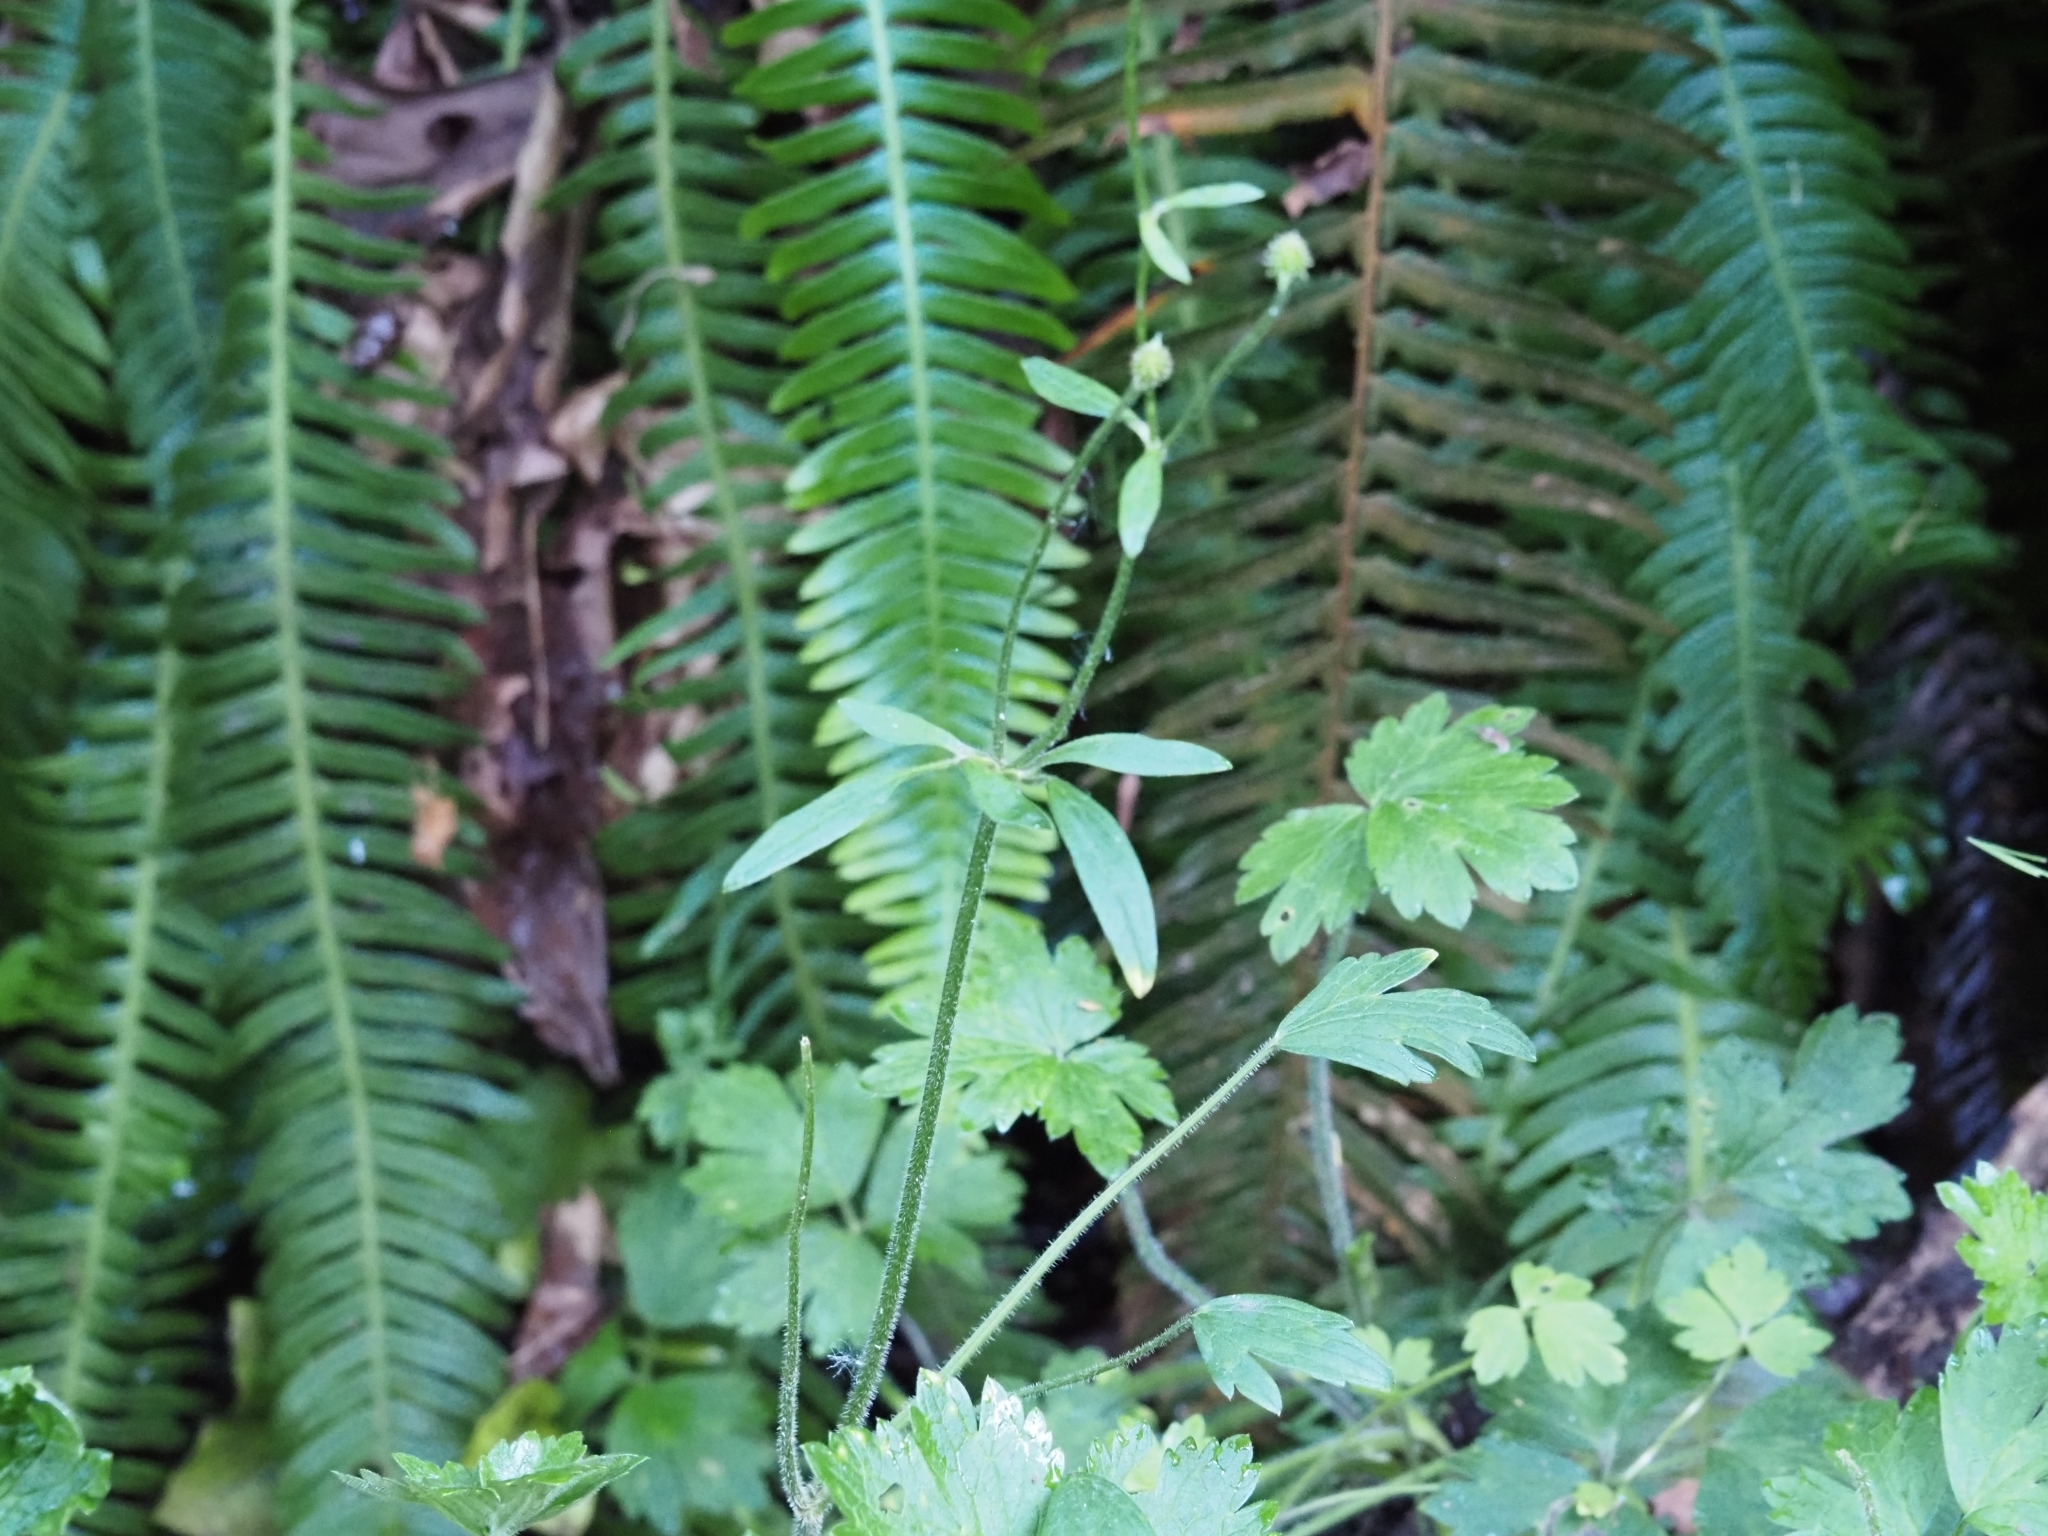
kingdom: Plantae
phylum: Tracheophyta
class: Magnoliopsida
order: Ranunculales
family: Ranunculaceae
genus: Ranunculus
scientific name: Ranunculus uncinatus
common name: Little buttercup
